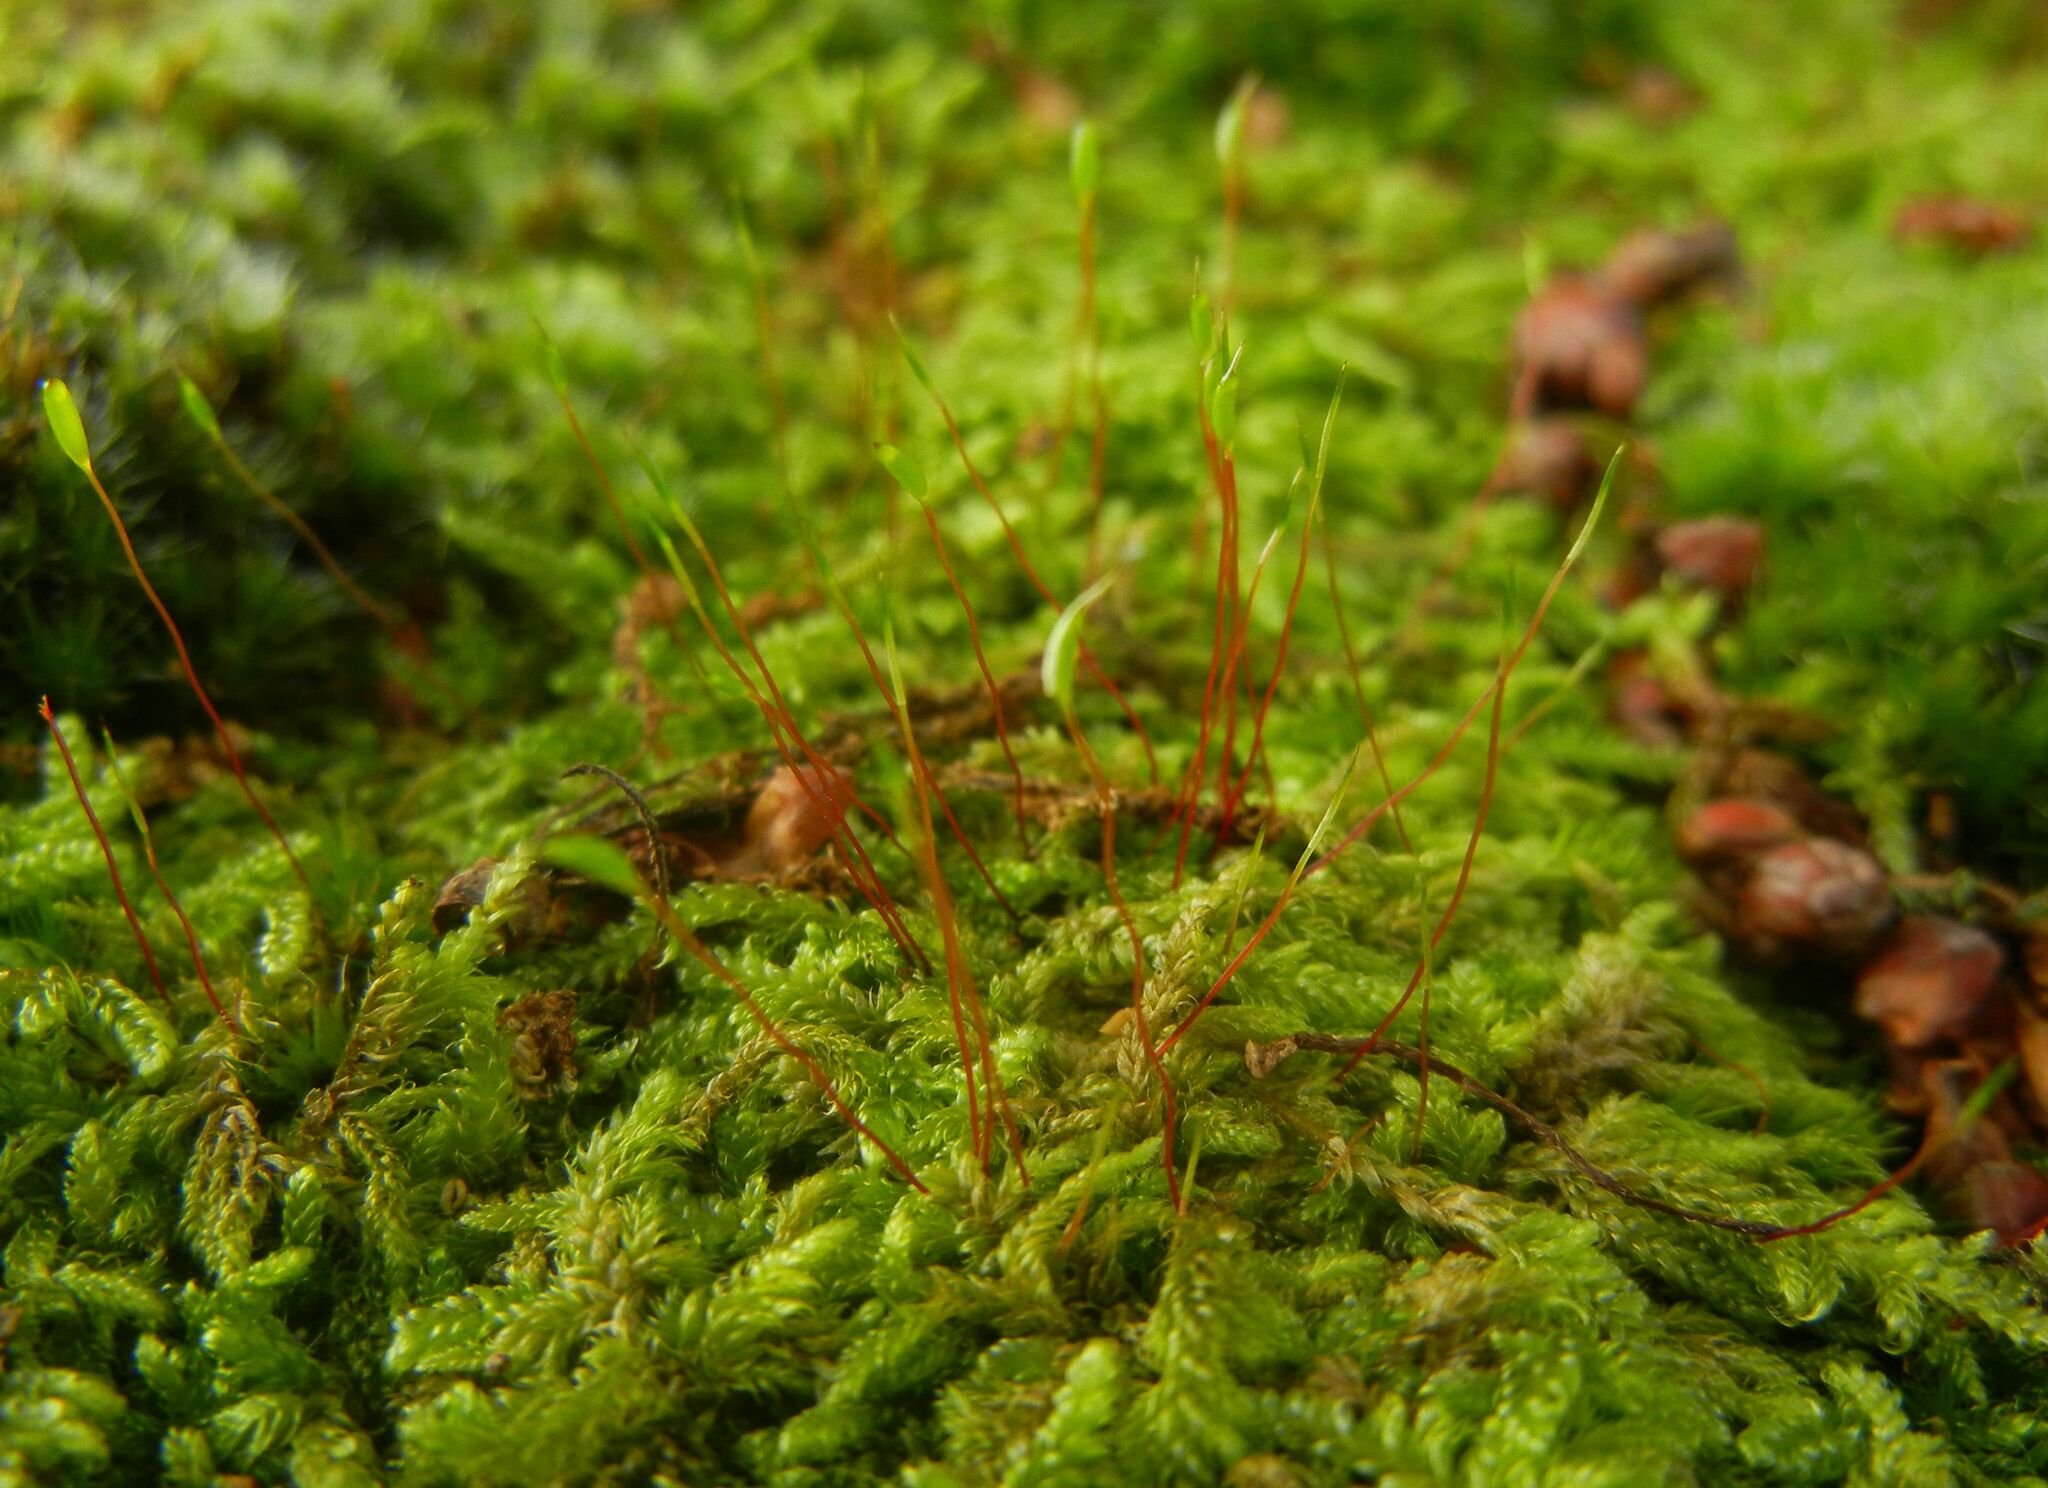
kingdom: Plantae
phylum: Bryophyta
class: Bryopsida
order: Hypnales
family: Hypnaceae
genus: Hypnum
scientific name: Hypnum cupressiforme
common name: Cypress-leaved plait-moss
